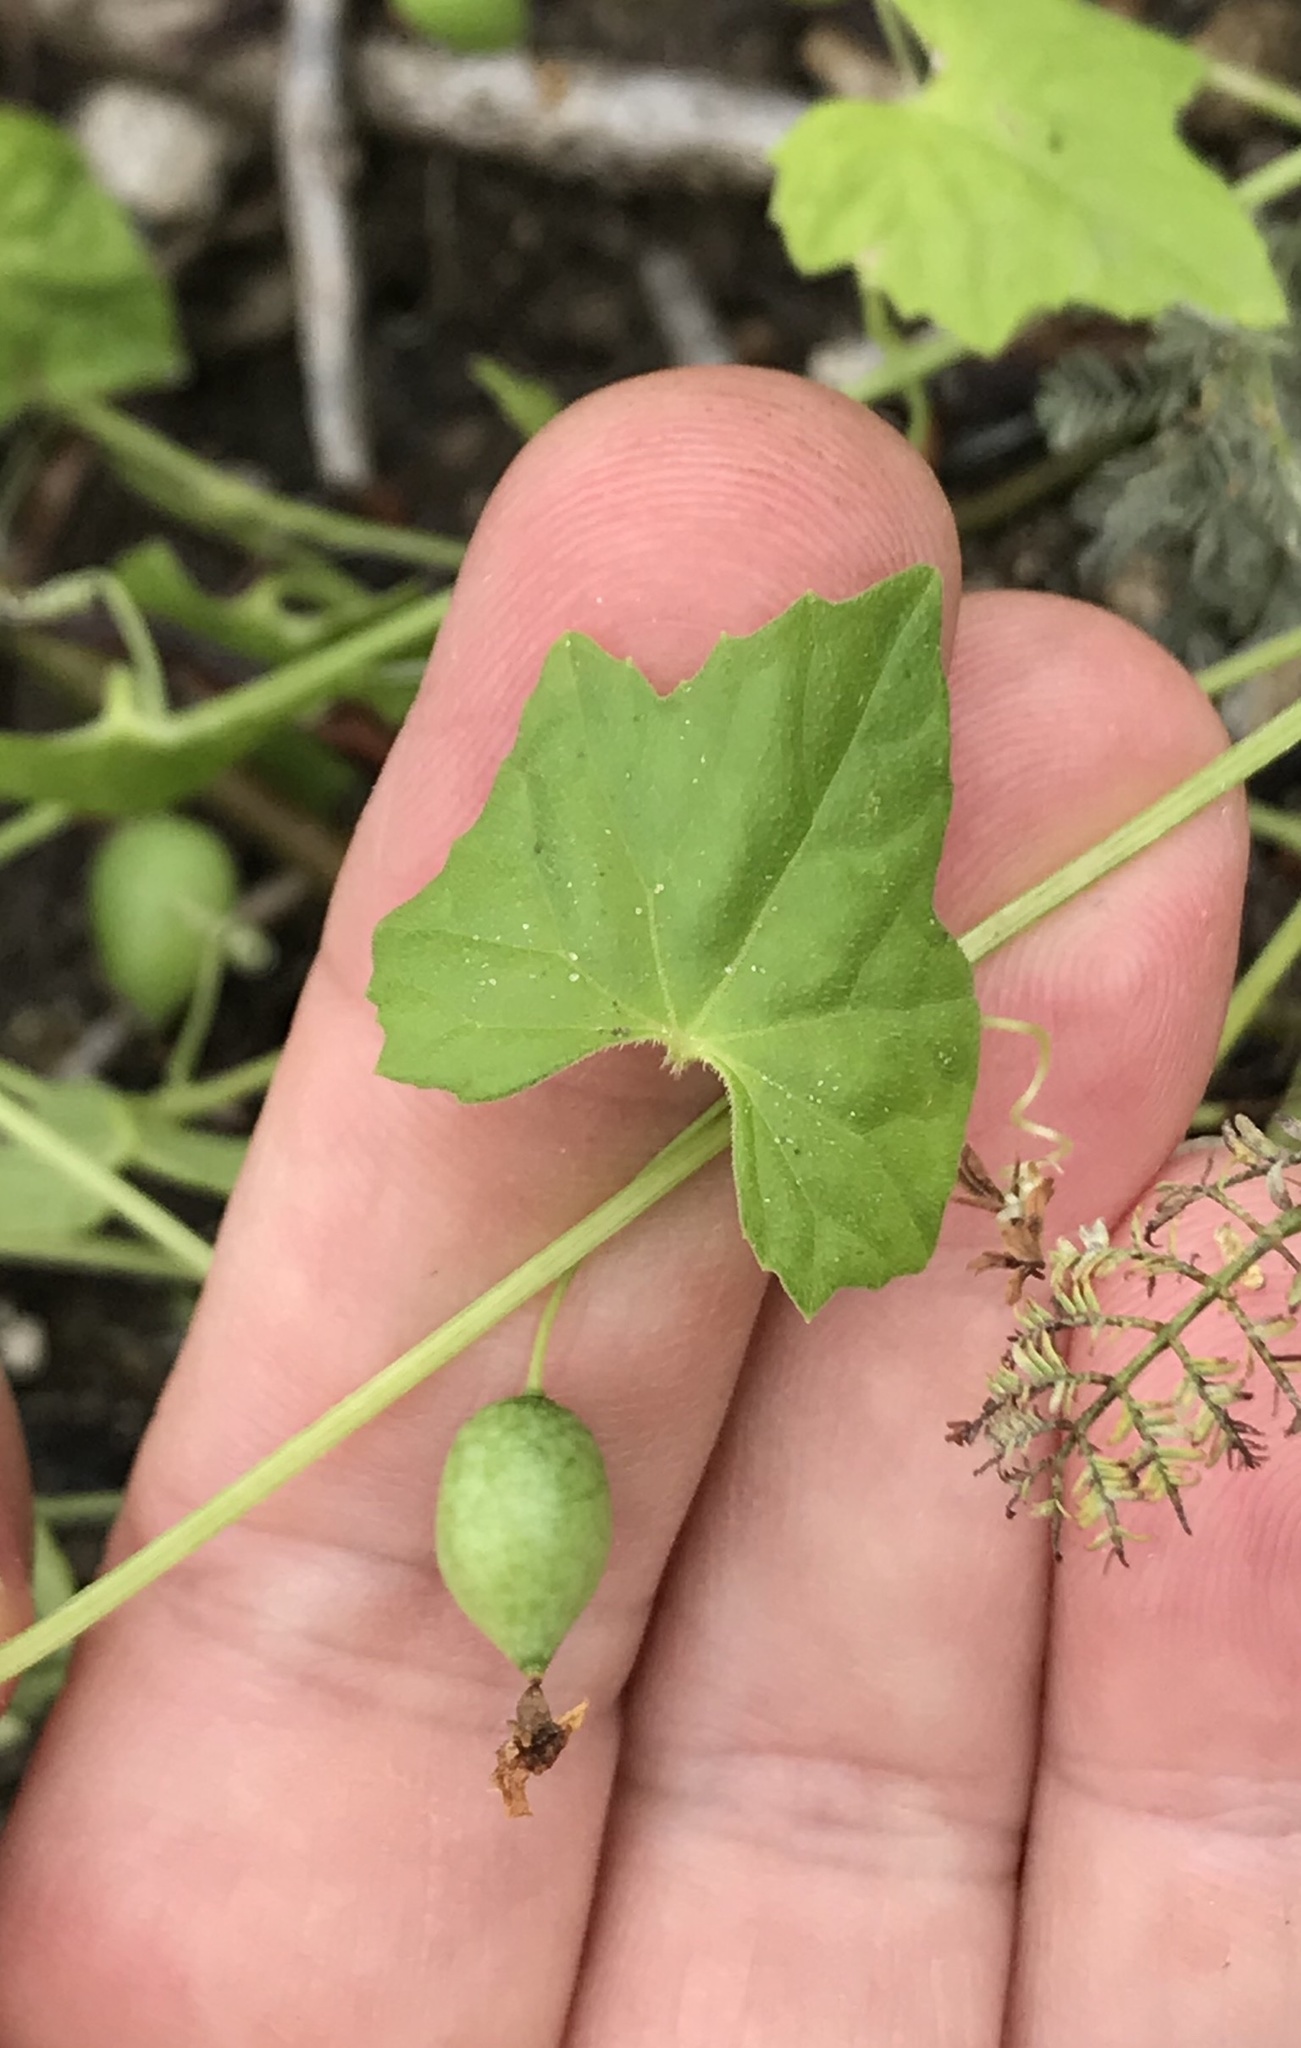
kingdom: Plantae
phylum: Tracheophyta
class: Magnoliopsida
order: Cucurbitales
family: Cucurbitaceae
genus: Melothria
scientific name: Melothria pendula
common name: Creeping-cucumber
